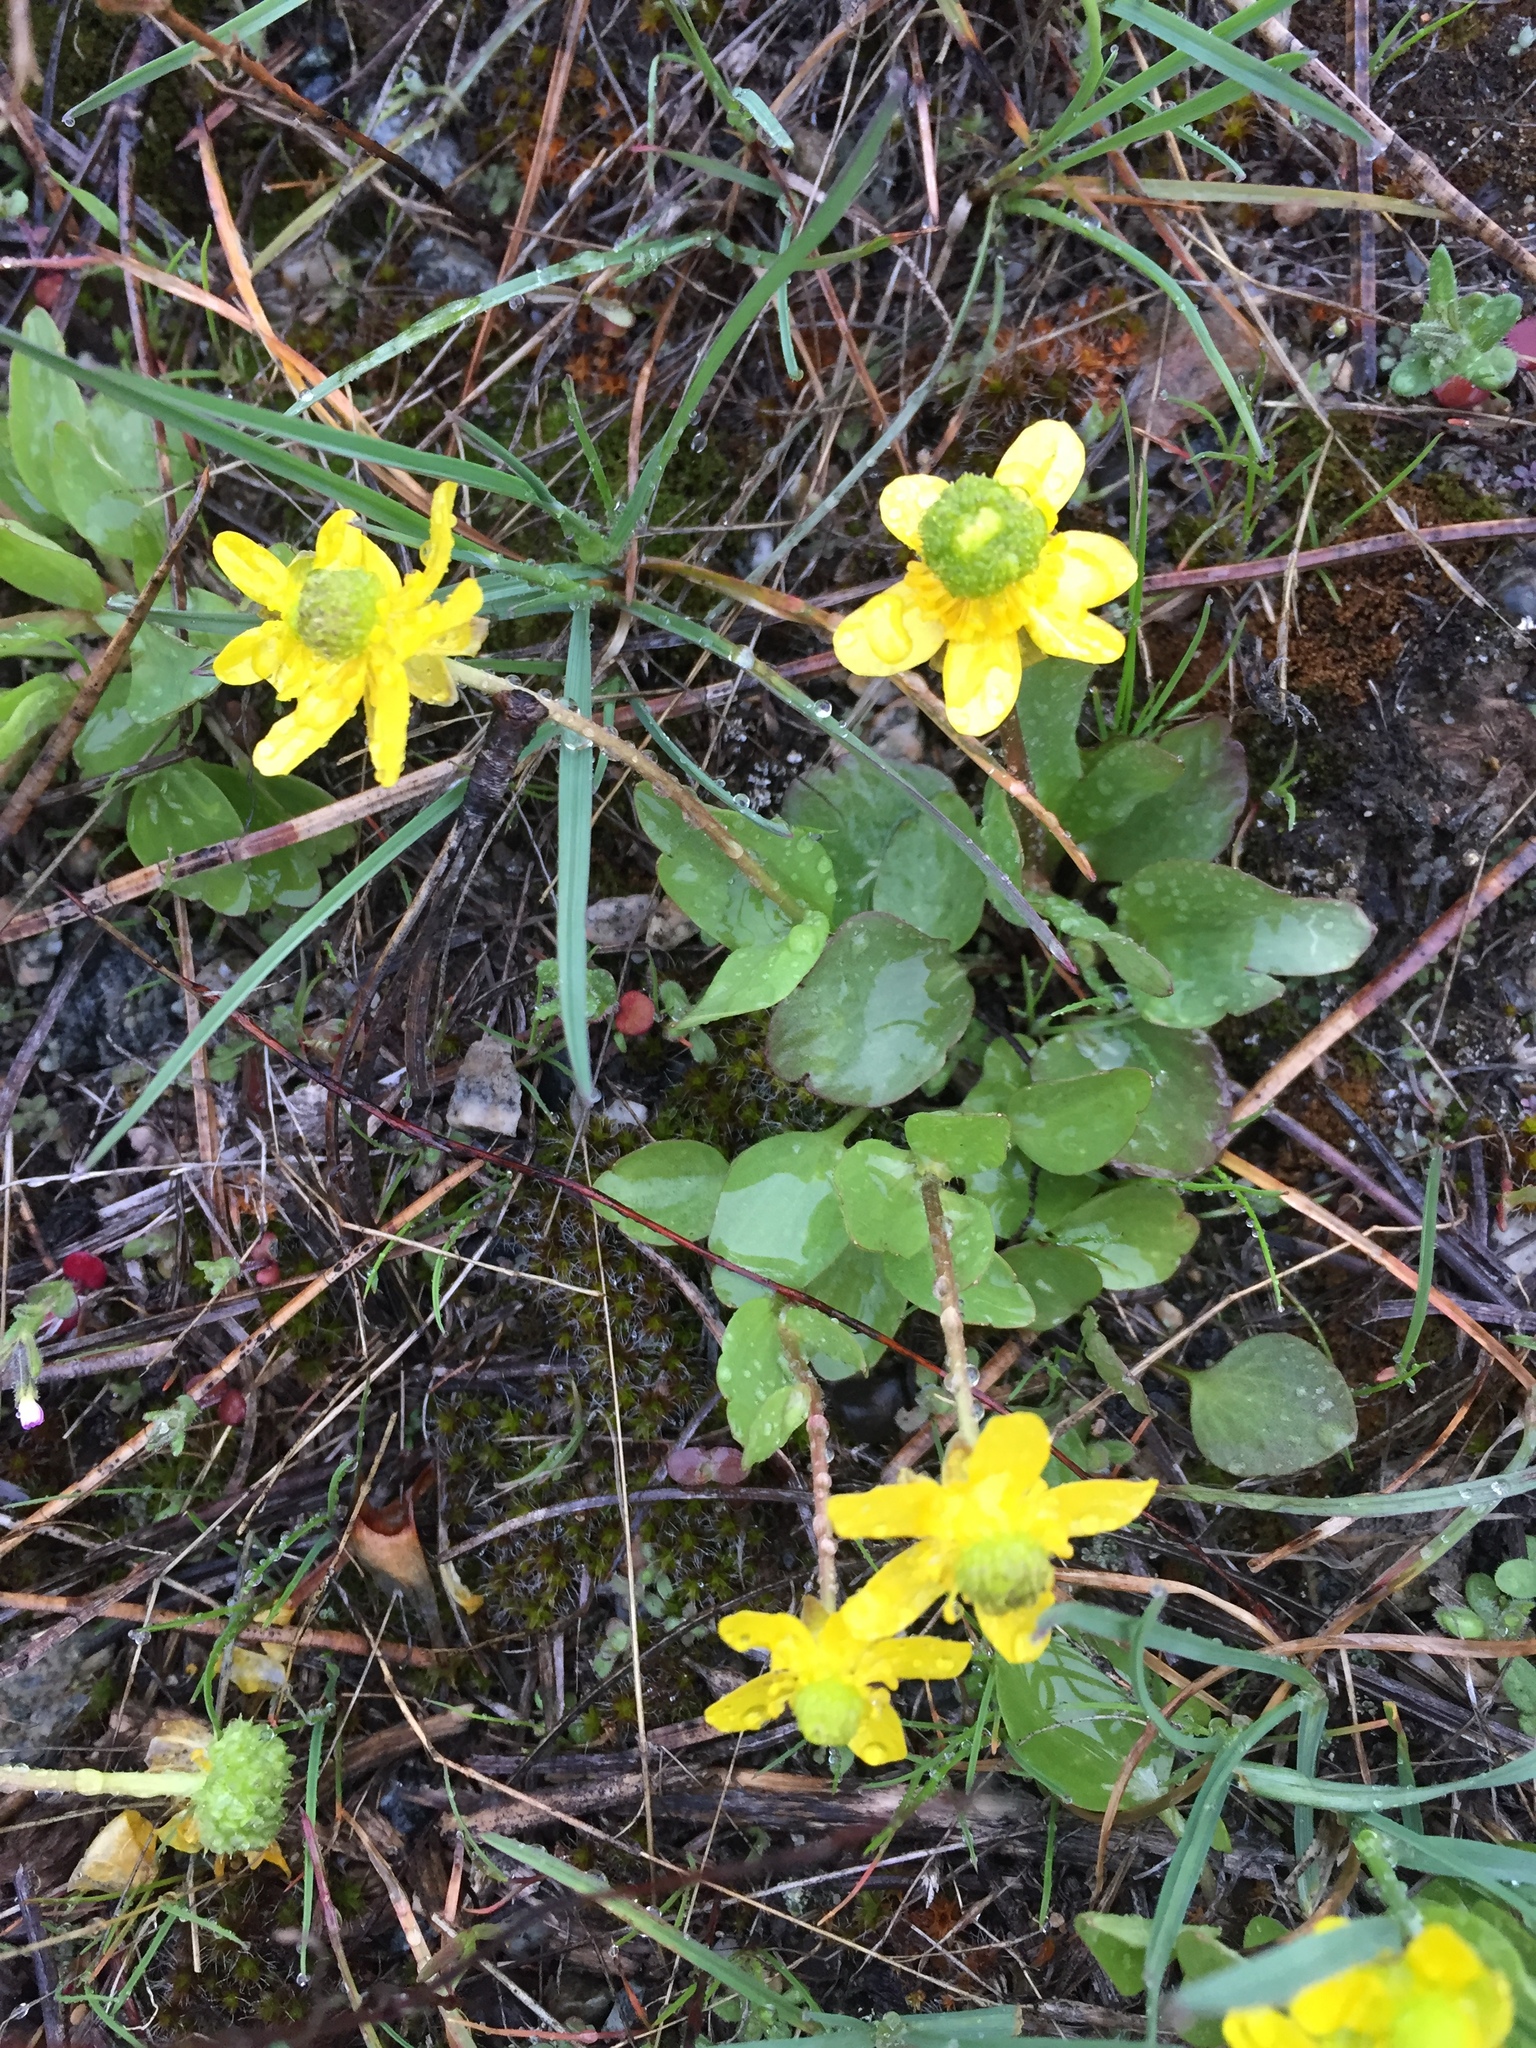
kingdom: Plantae
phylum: Tracheophyta
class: Magnoliopsida
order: Ranunculales
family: Ranunculaceae
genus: Ranunculus
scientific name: Ranunculus glaberrimus
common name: Sagebrush buttercup
